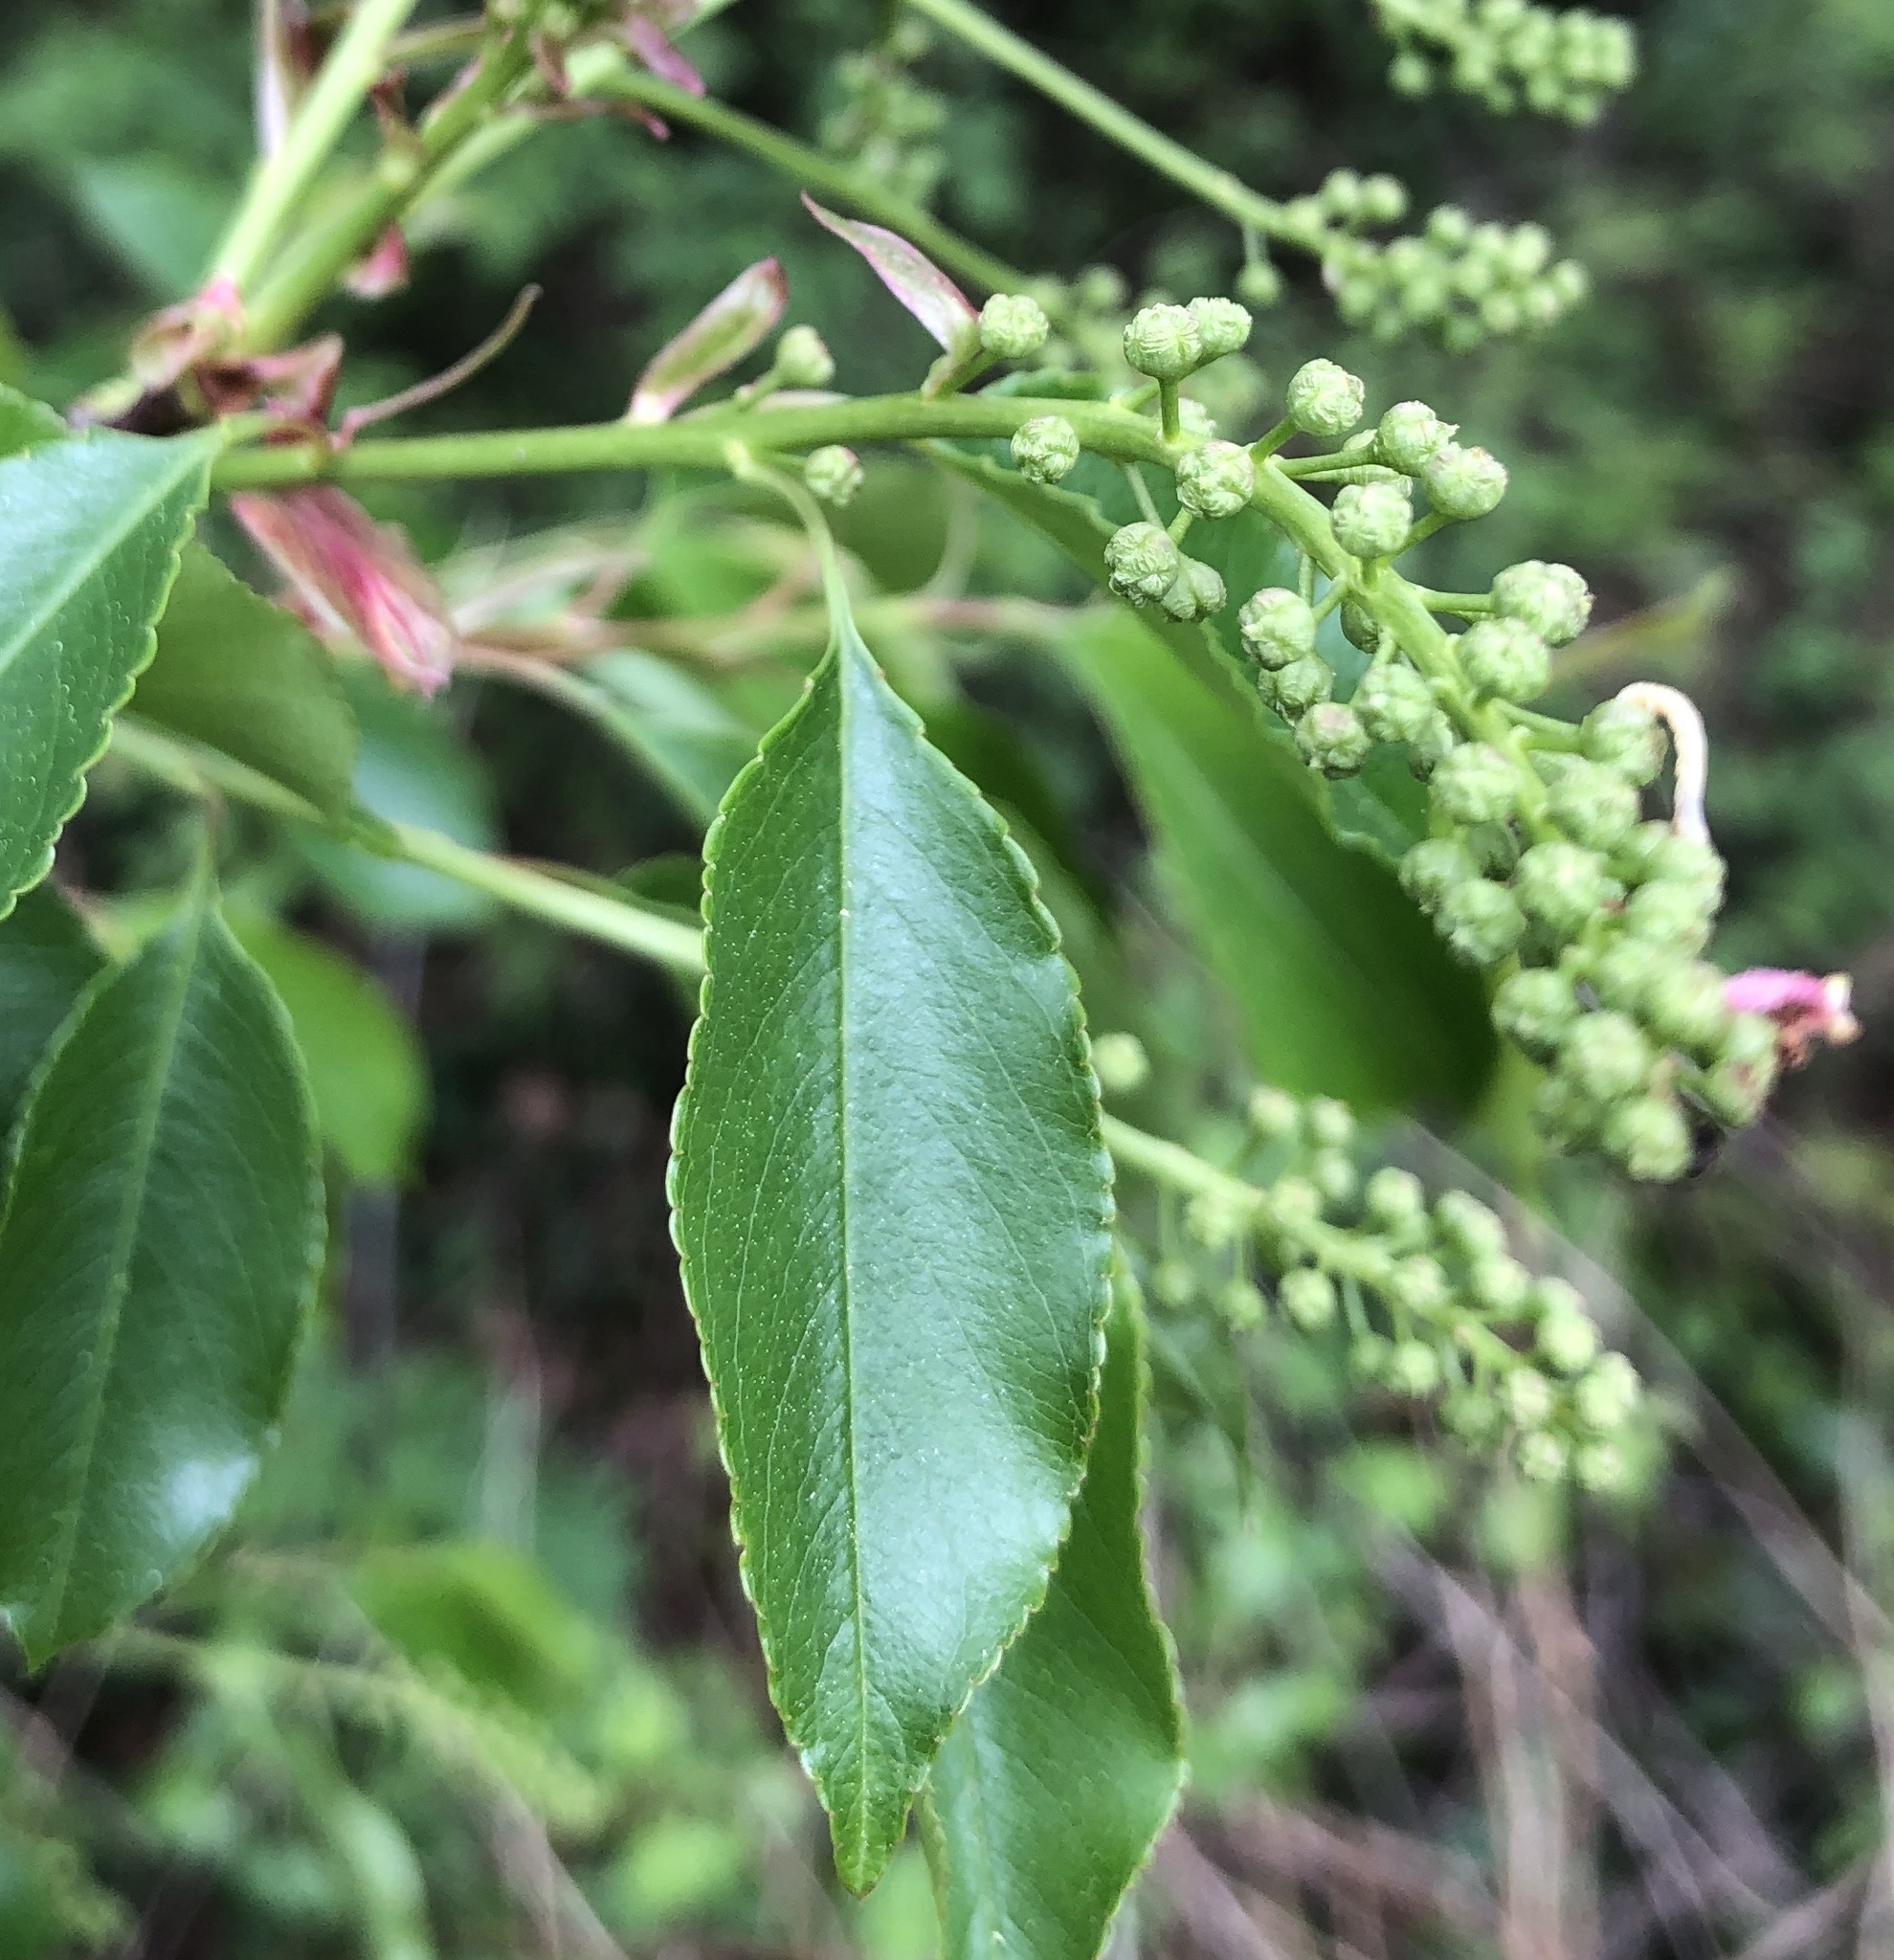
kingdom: Plantae
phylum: Tracheophyta
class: Magnoliopsida
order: Rosales
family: Rosaceae
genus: Prunus
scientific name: Prunus serotina
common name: Black cherry
